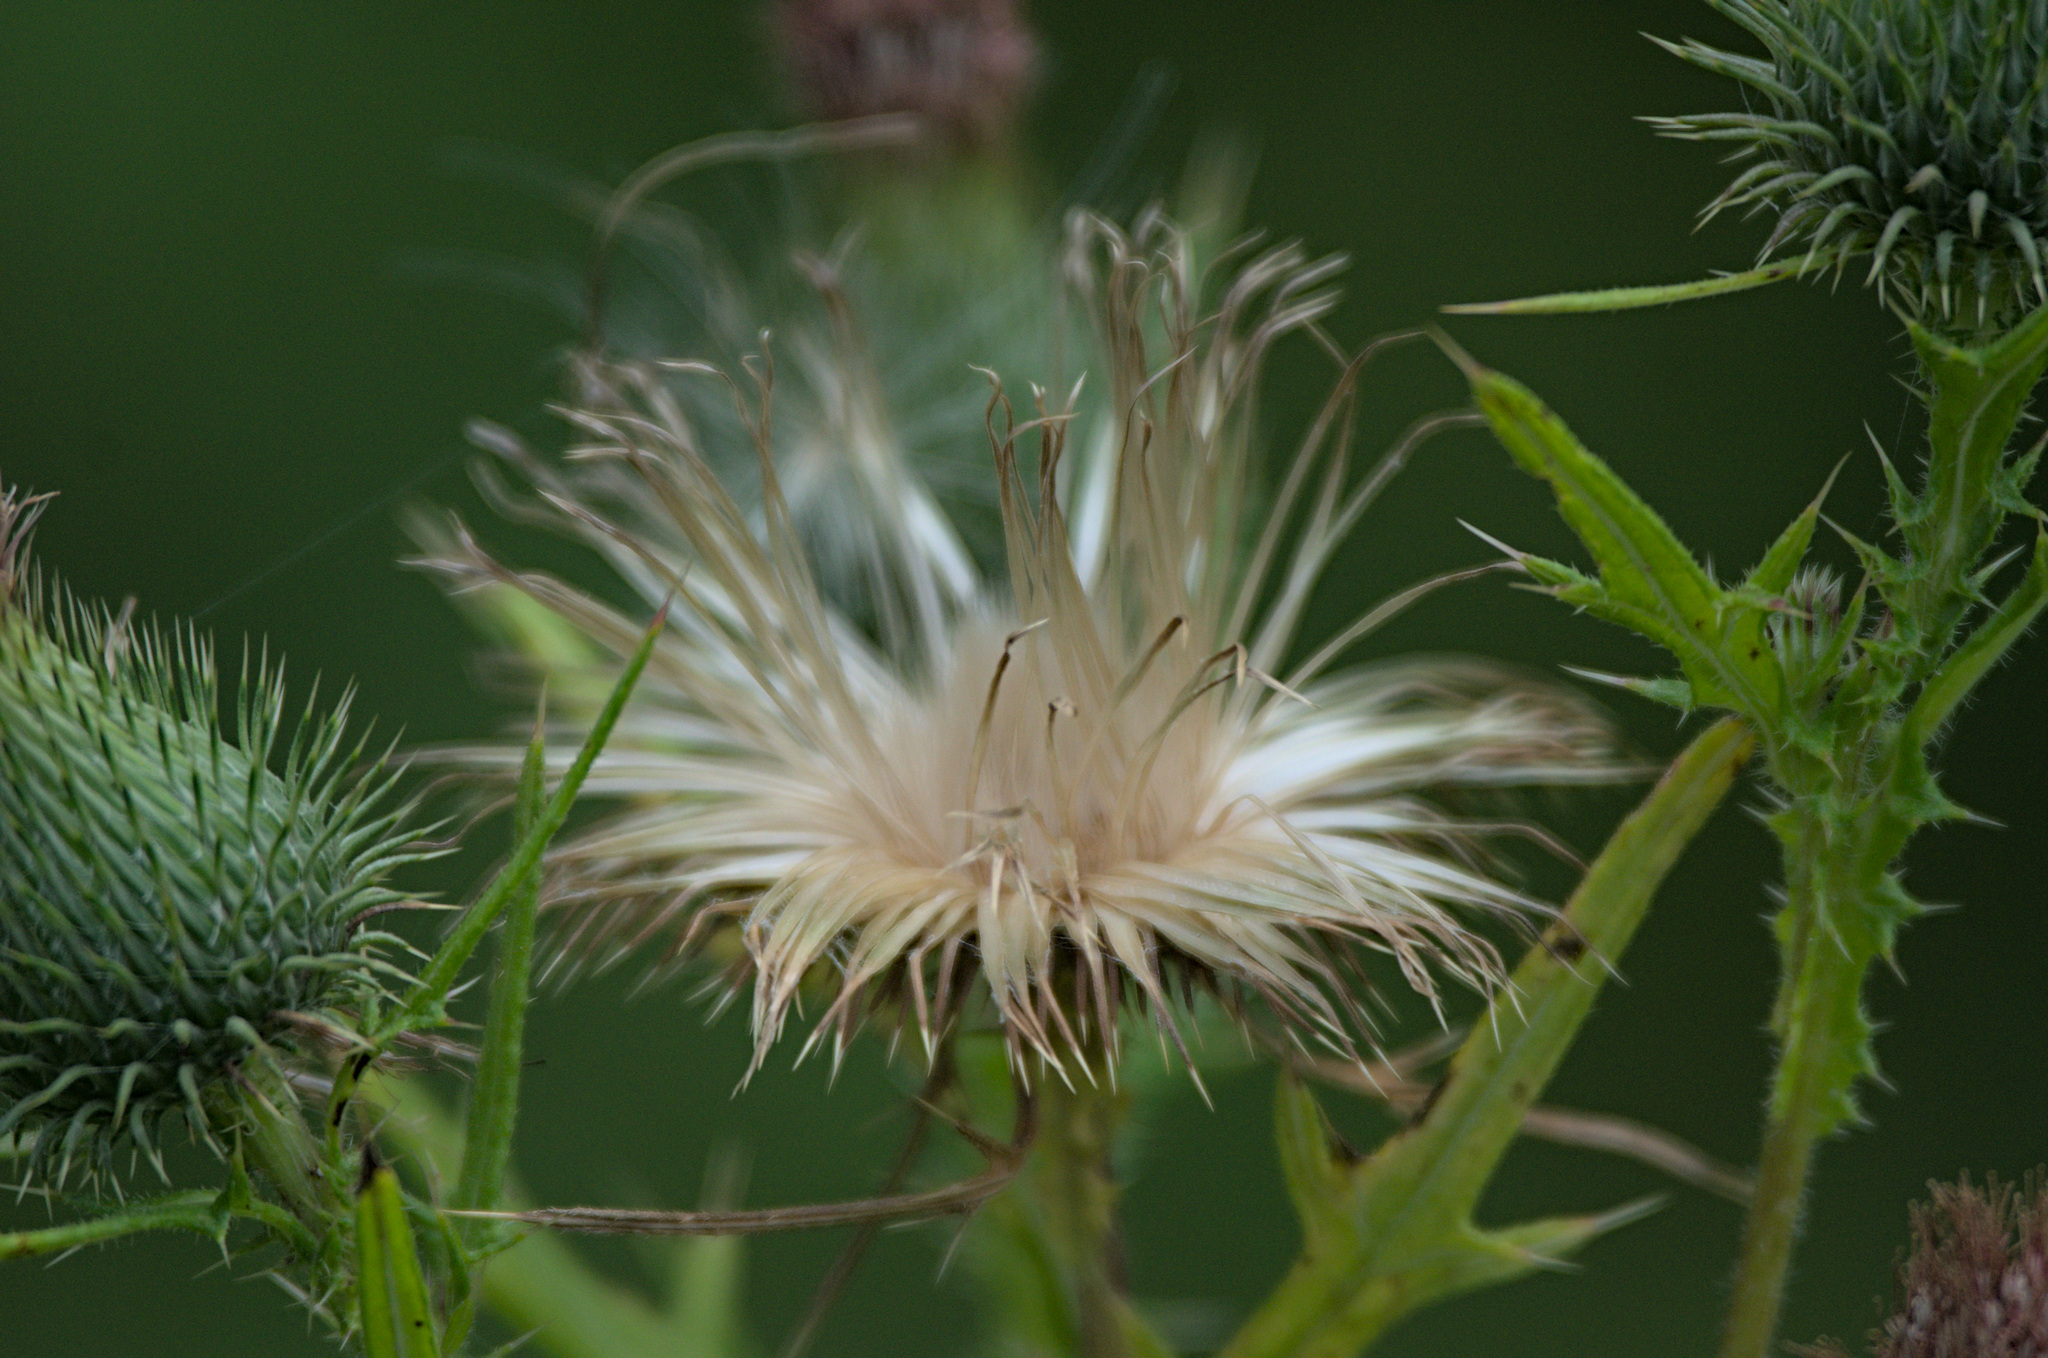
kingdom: Plantae
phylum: Tracheophyta
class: Magnoliopsida
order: Asterales
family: Asteraceae
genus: Cirsium
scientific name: Cirsium vulgare
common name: Bull thistle
